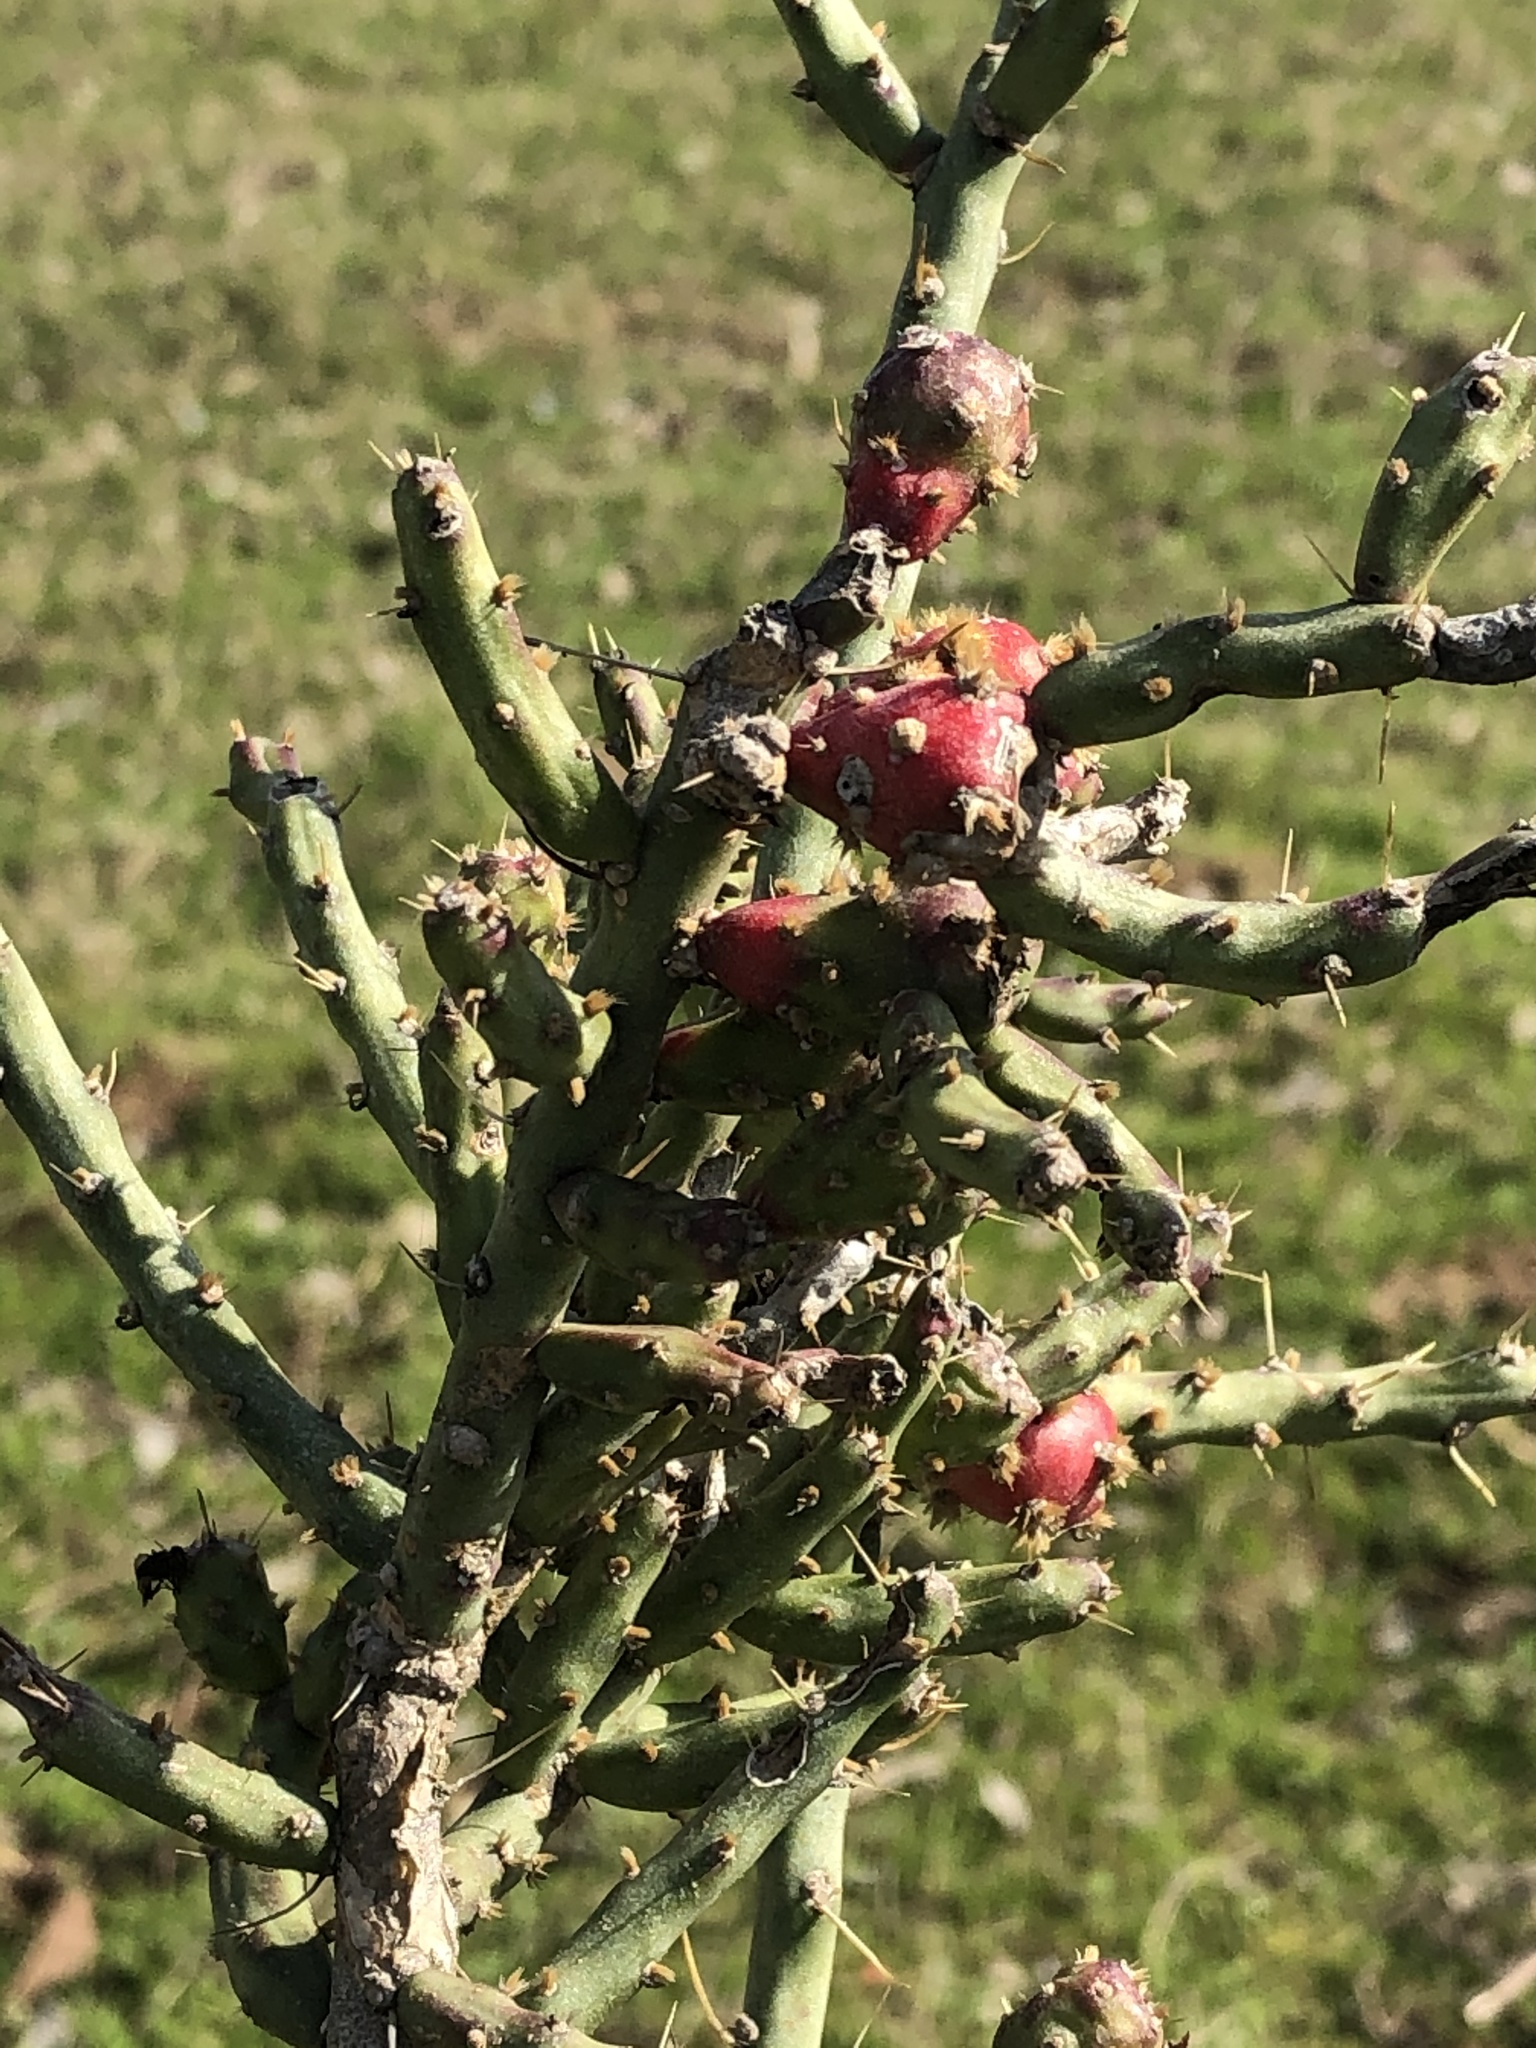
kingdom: Plantae
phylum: Tracheophyta
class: Magnoliopsida
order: Caryophyllales
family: Cactaceae
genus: Cylindropuntia
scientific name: Cylindropuntia leptocaulis
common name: Christmas cactus
